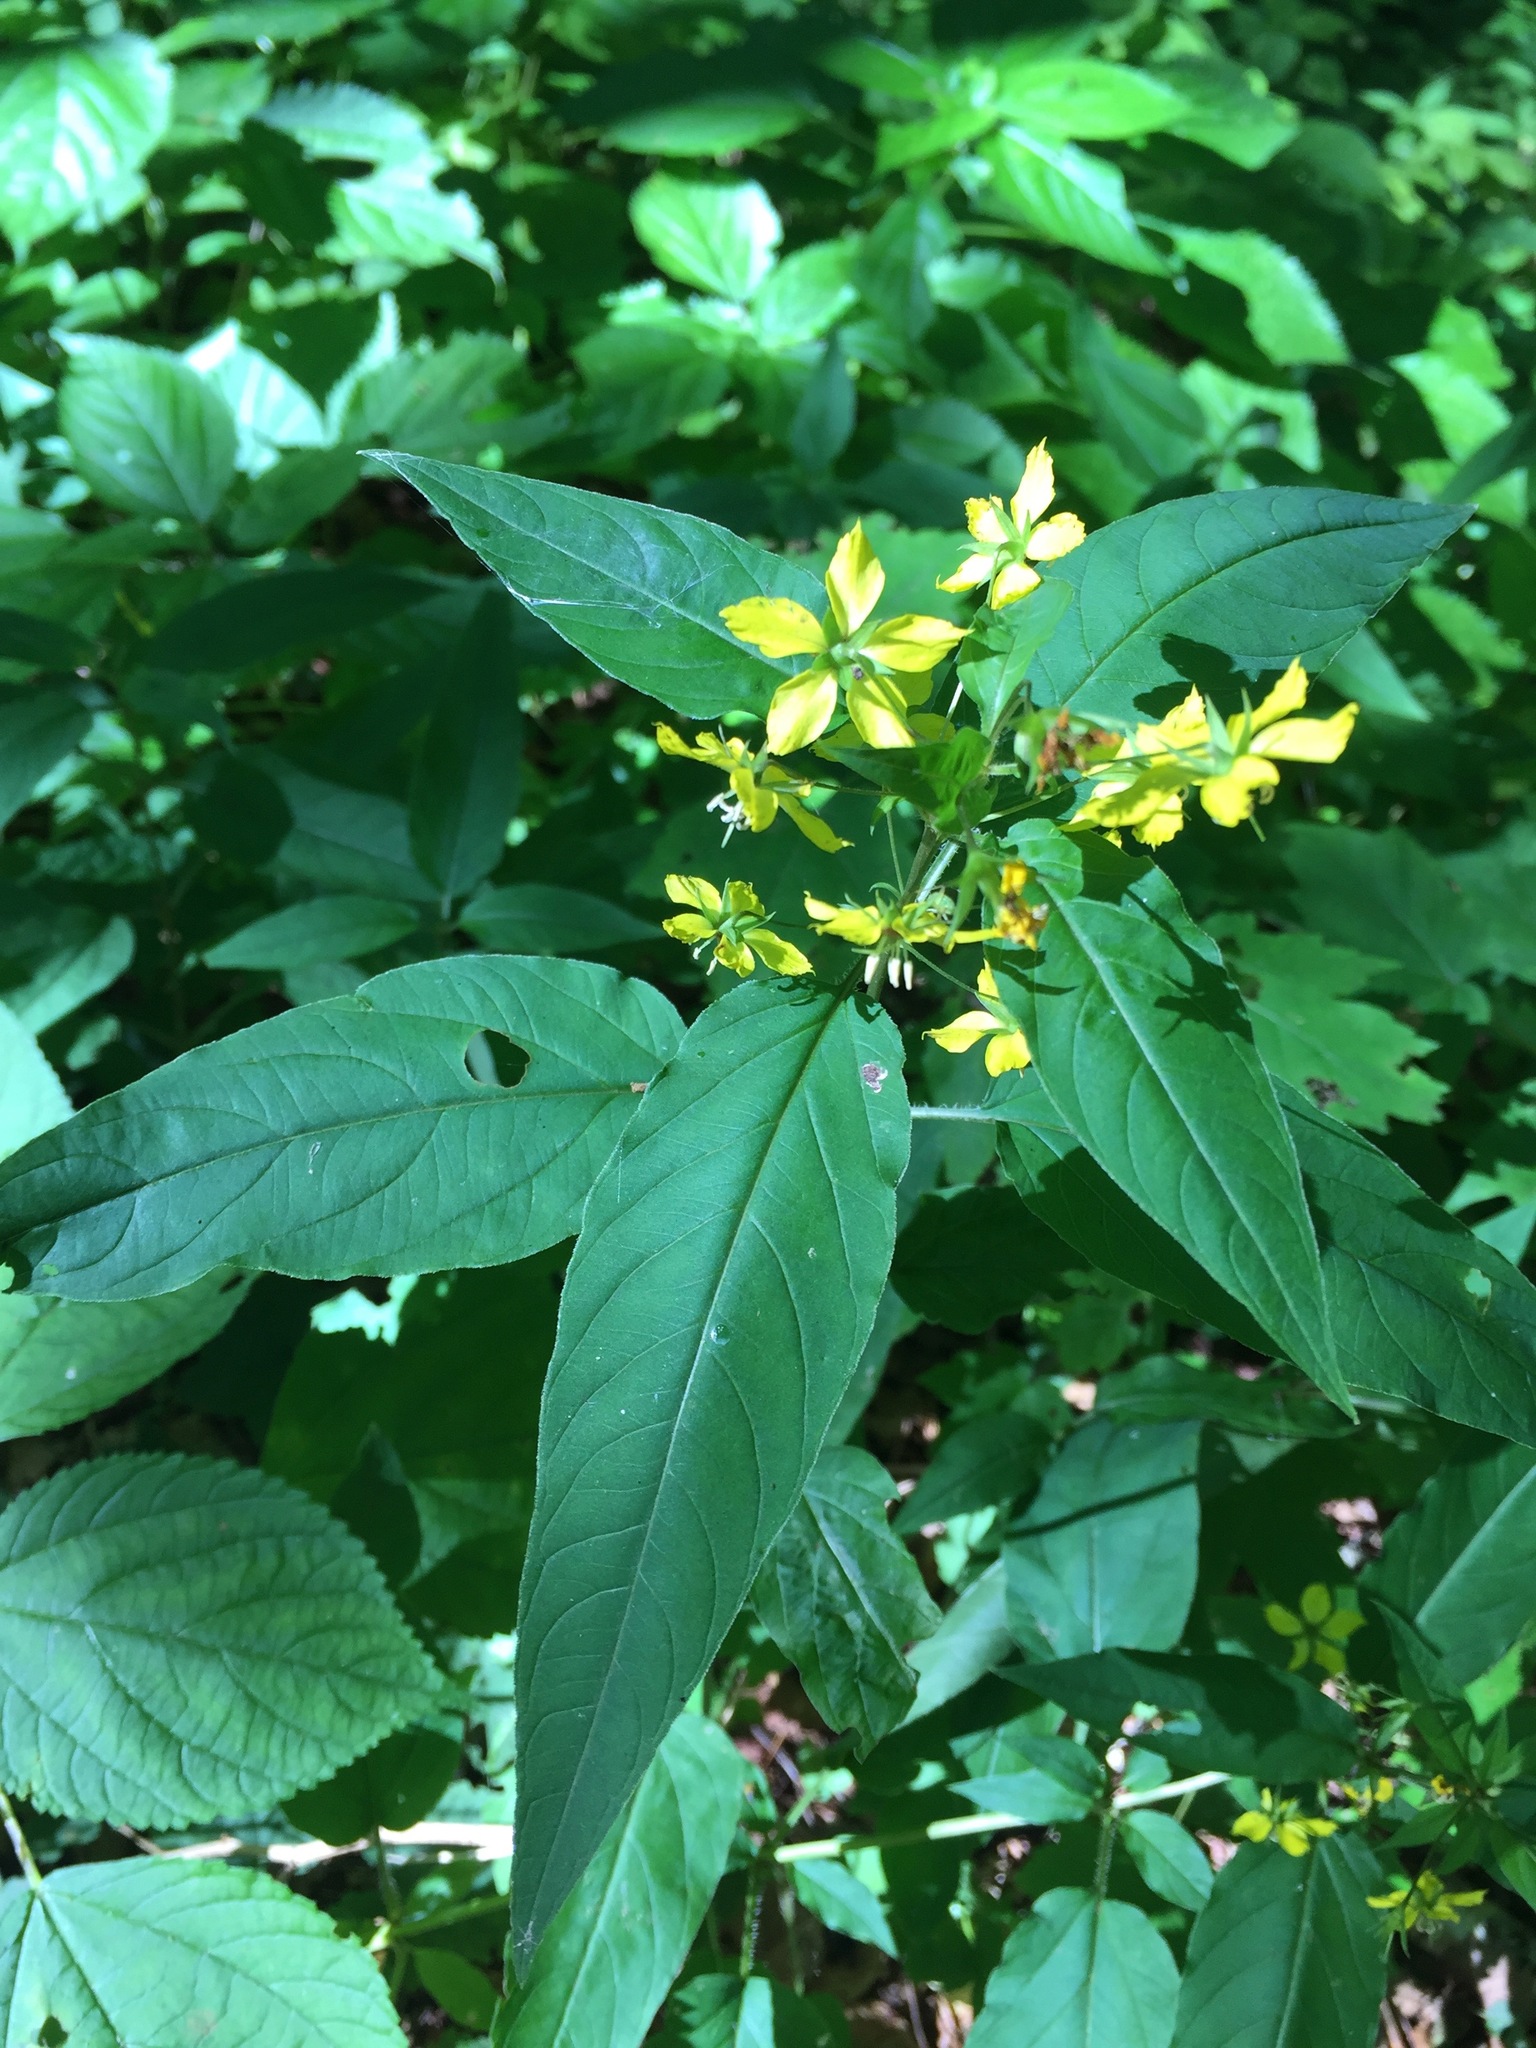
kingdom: Plantae
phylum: Tracheophyta
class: Magnoliopsida
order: Ericales
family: Primulaceae
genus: Lysimachia
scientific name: Lysimachia ciliata
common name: Fringed loosestrife
